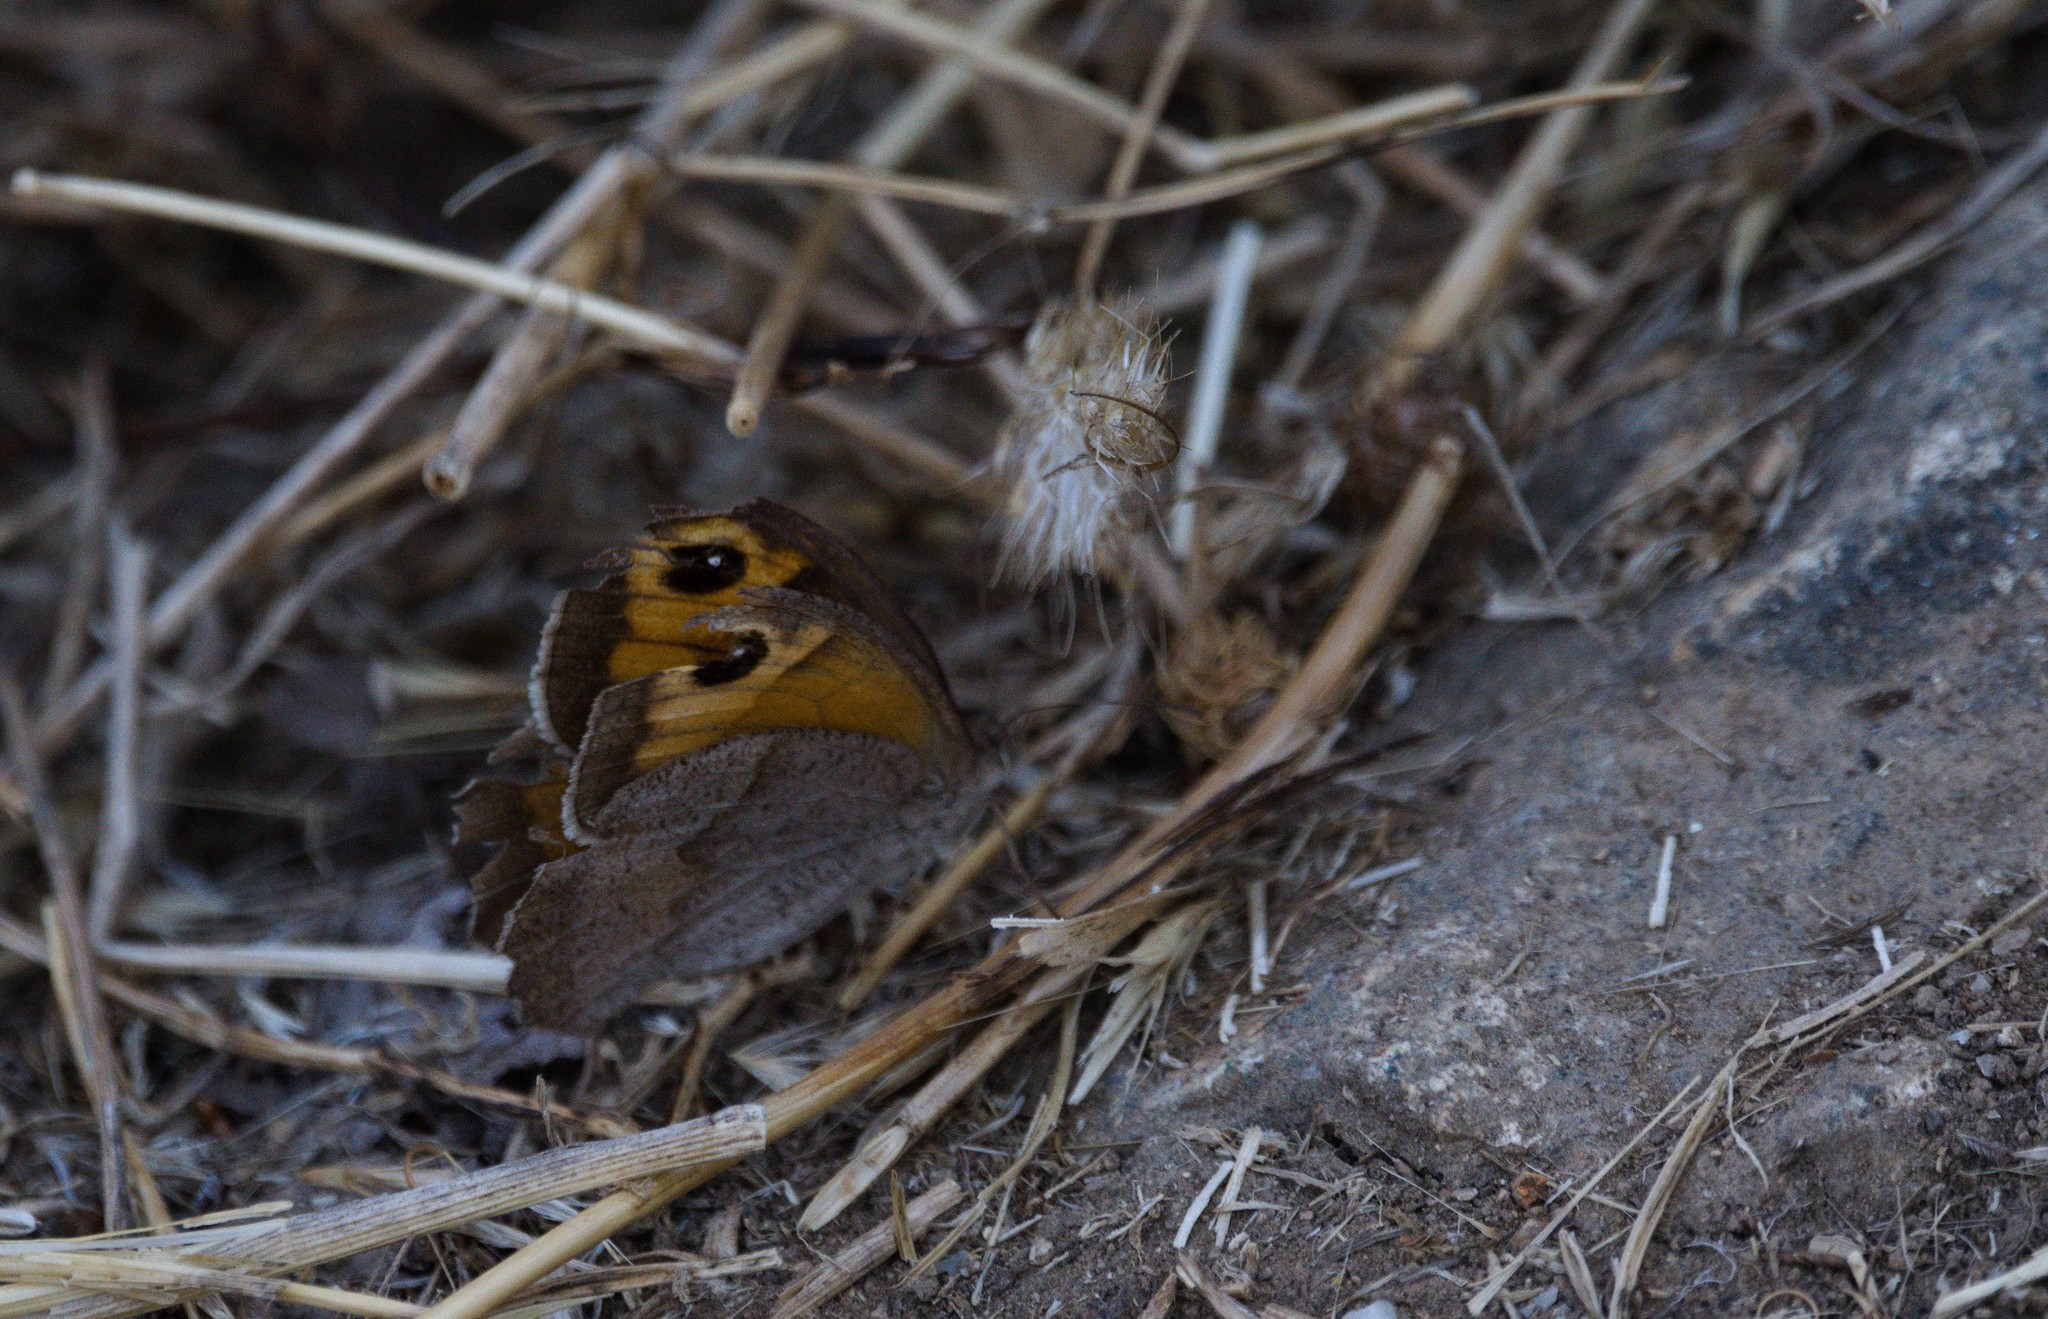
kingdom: Animalia
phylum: Arthropoda
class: Insecta
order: Lepidoptera
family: Nymphalidae
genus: Maniola
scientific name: Maniola jurtina
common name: Meadow brown
